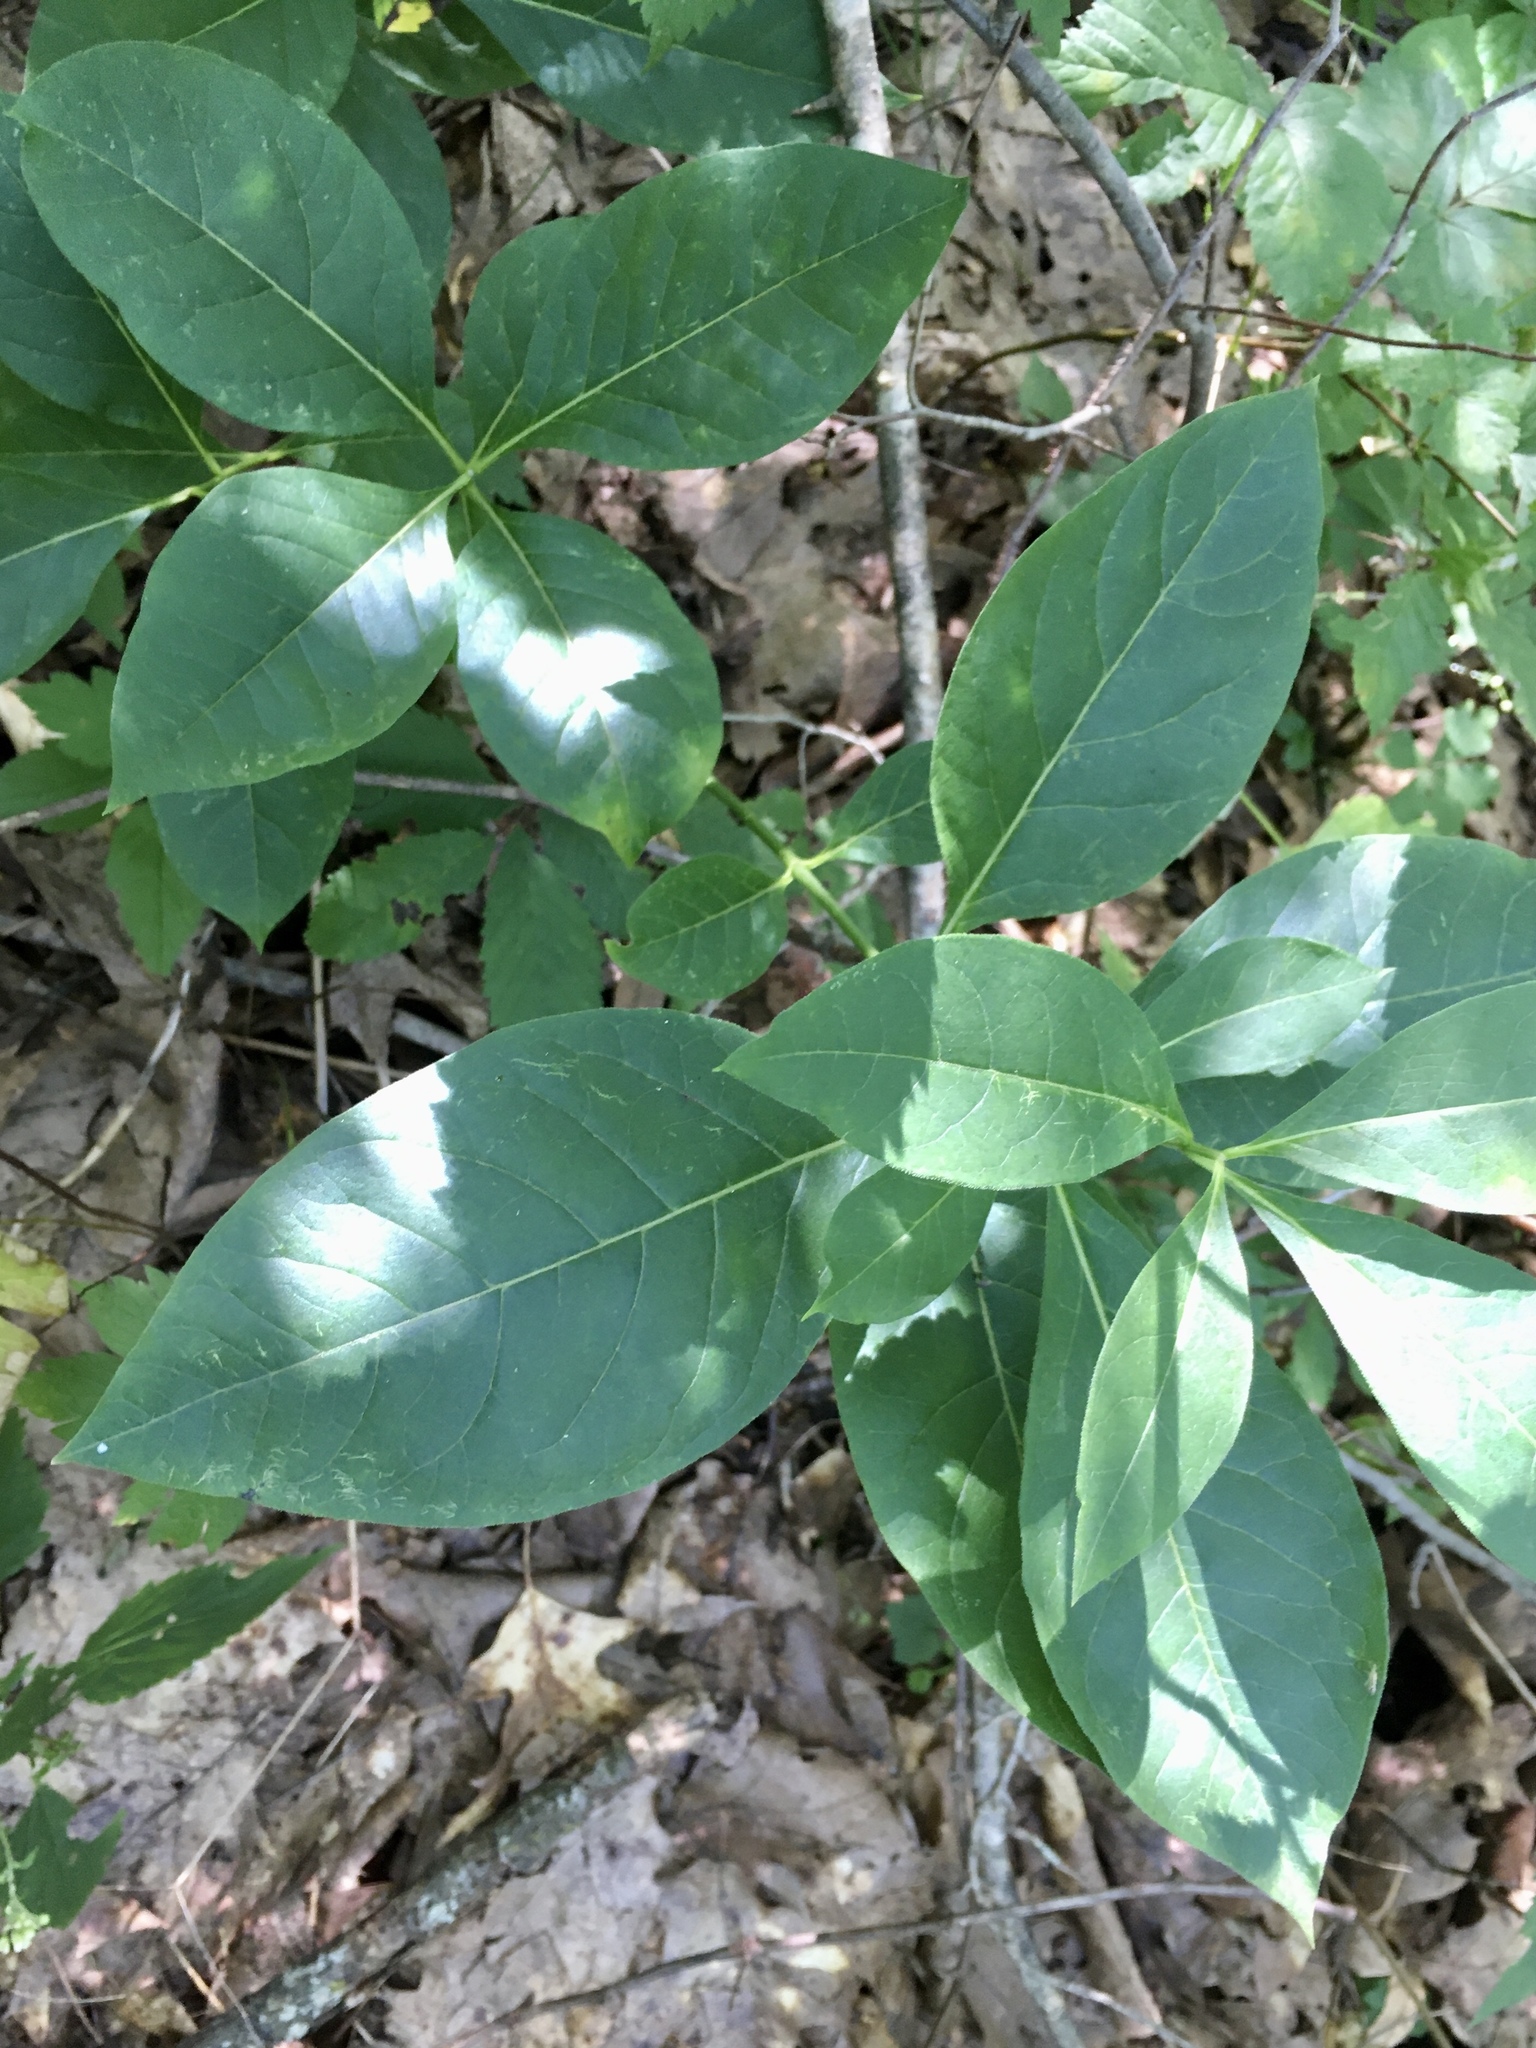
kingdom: Plantae
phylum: Tracheophyta
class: Magnoliopsida
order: Gentianales
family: Apocynaceae
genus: Asclepias
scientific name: Asclepias exaltata
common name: Poke milkweed
